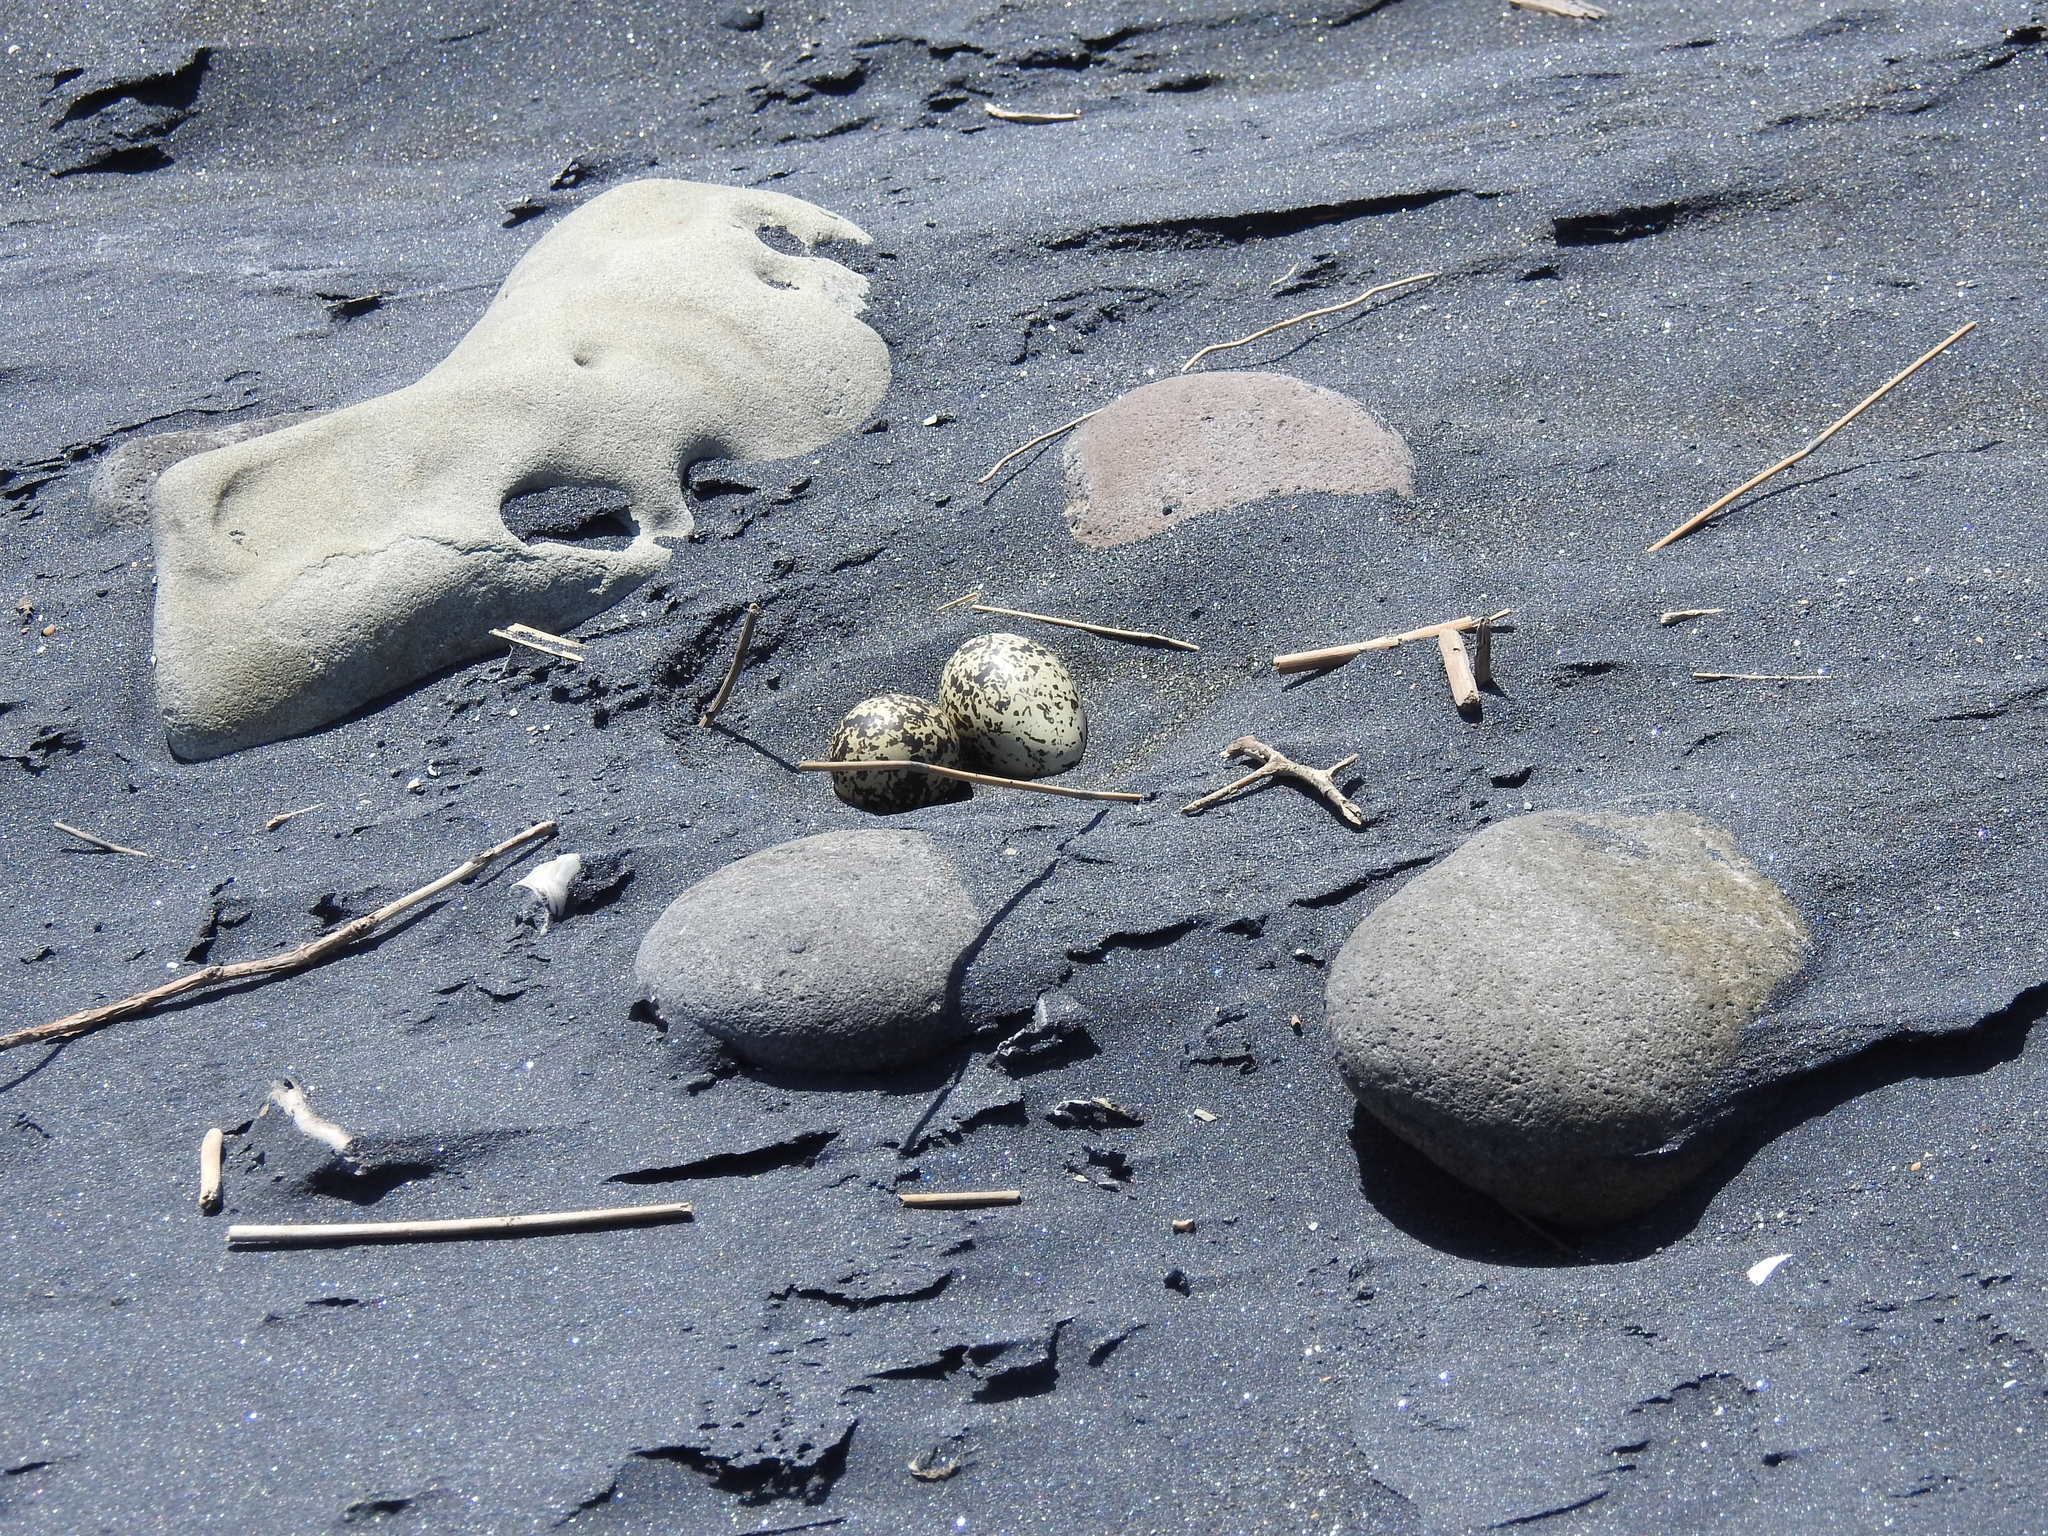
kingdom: Animalia
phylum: Chordata
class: Aves
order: Charadriiformes
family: Charadriidae
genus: Anarhynchus
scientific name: Anarhynchus
